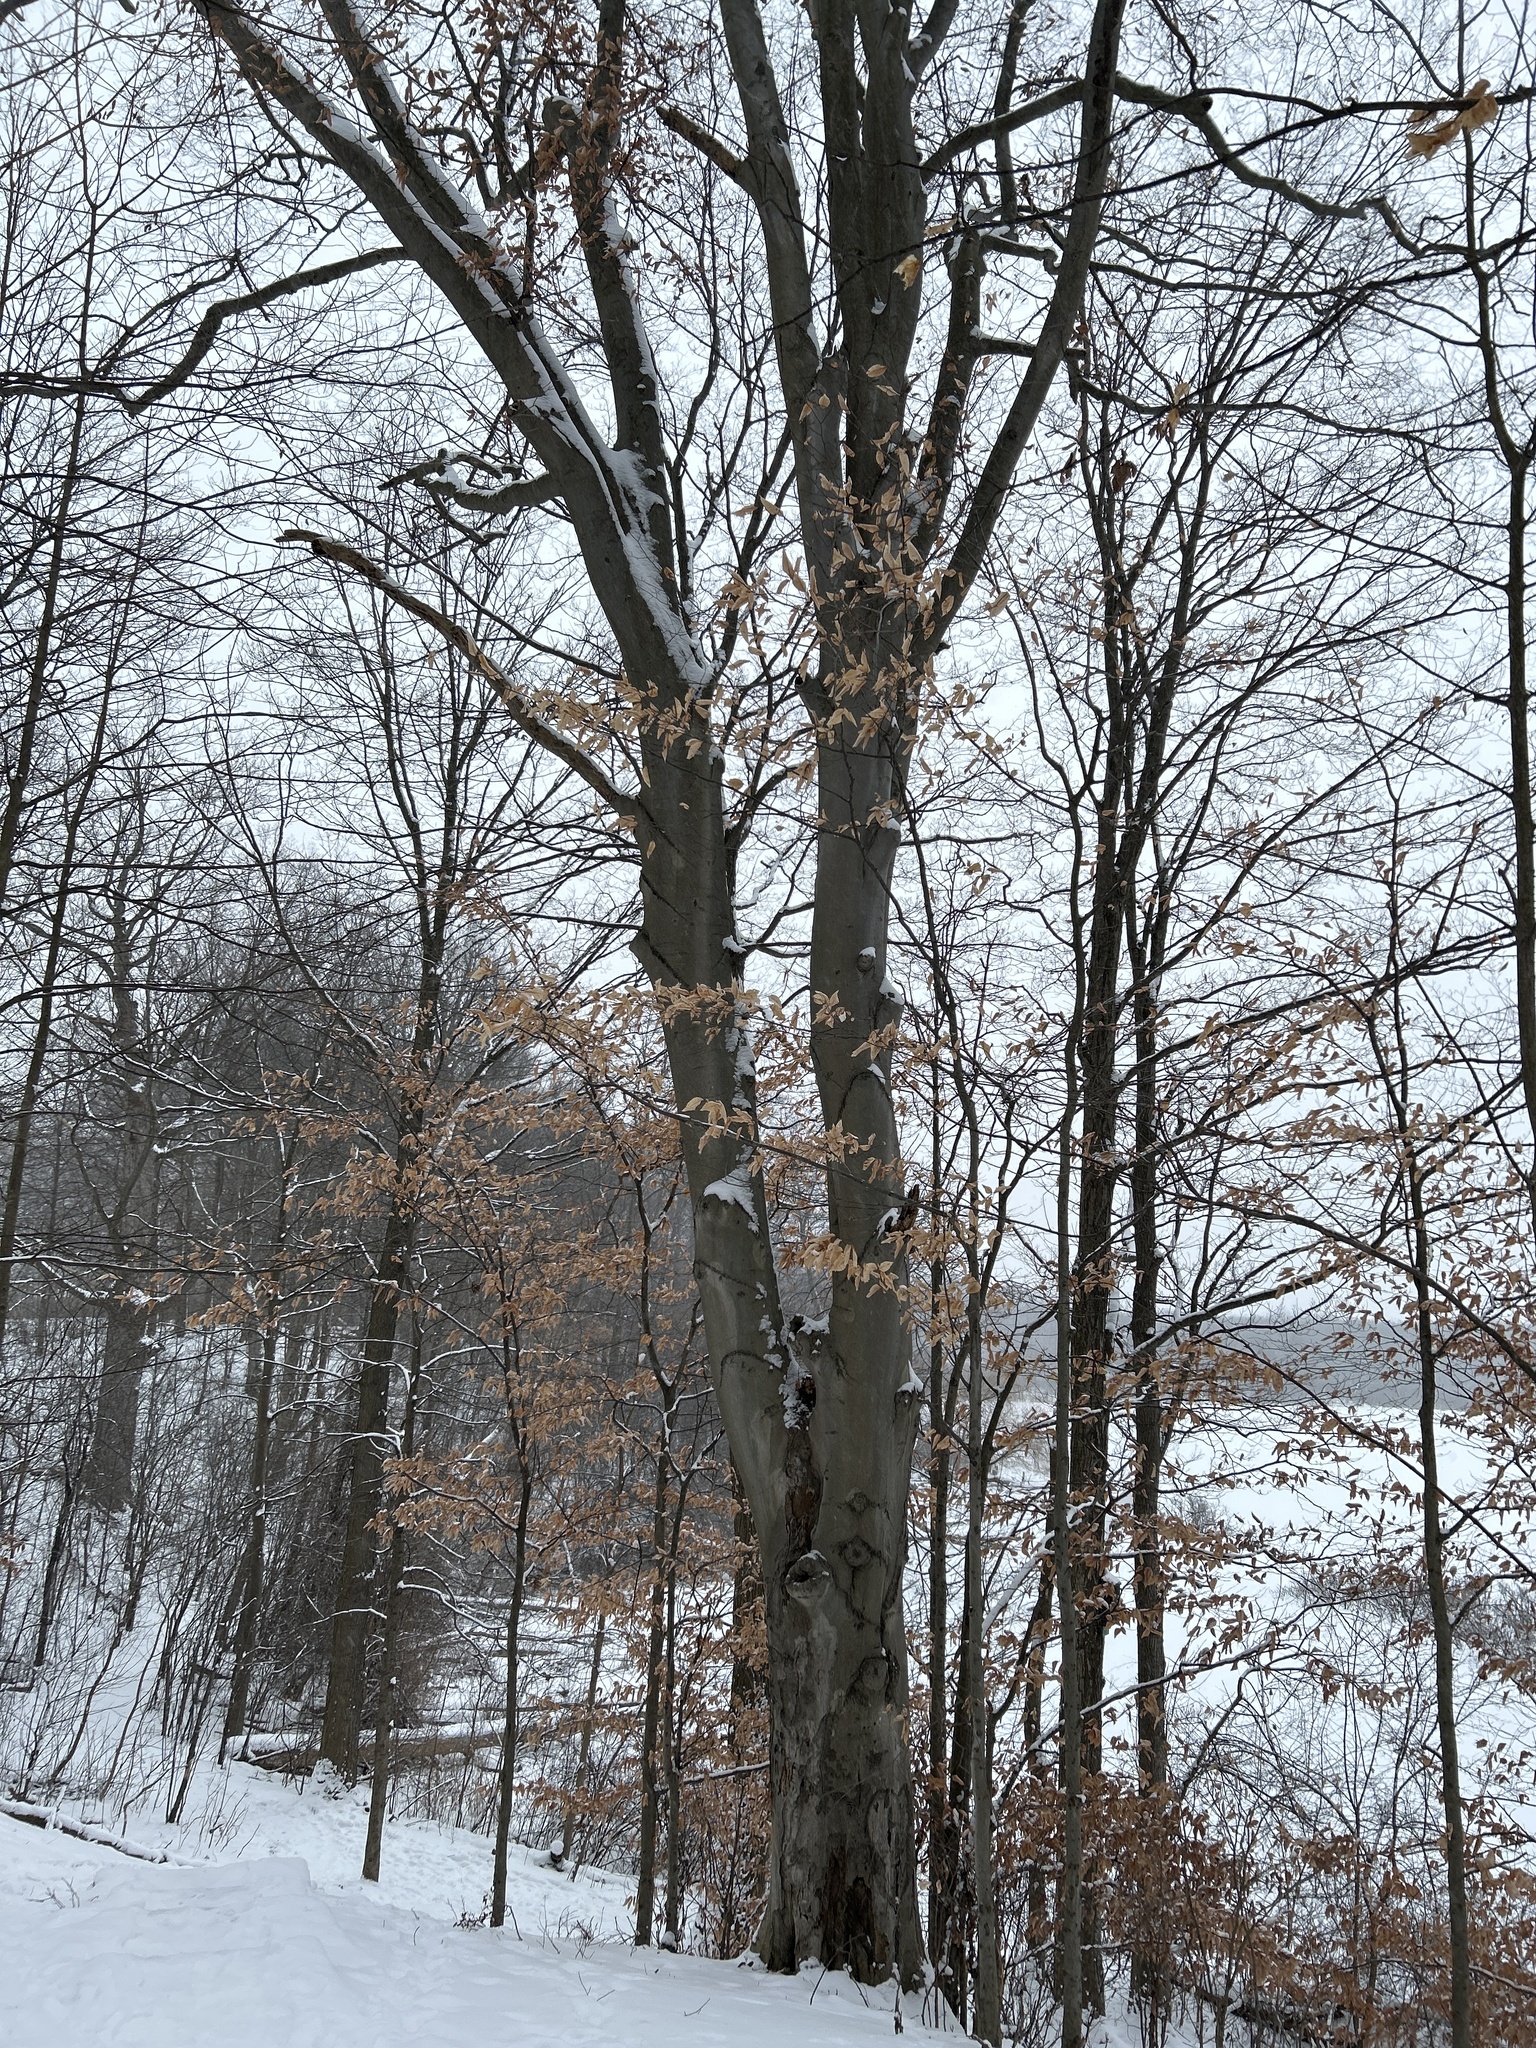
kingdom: Plantae
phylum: Tracheophyta
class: Magnoliopsida
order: Fagales
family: Fagaceae
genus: Fagus
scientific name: Fagus grandifolia
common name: American beech
